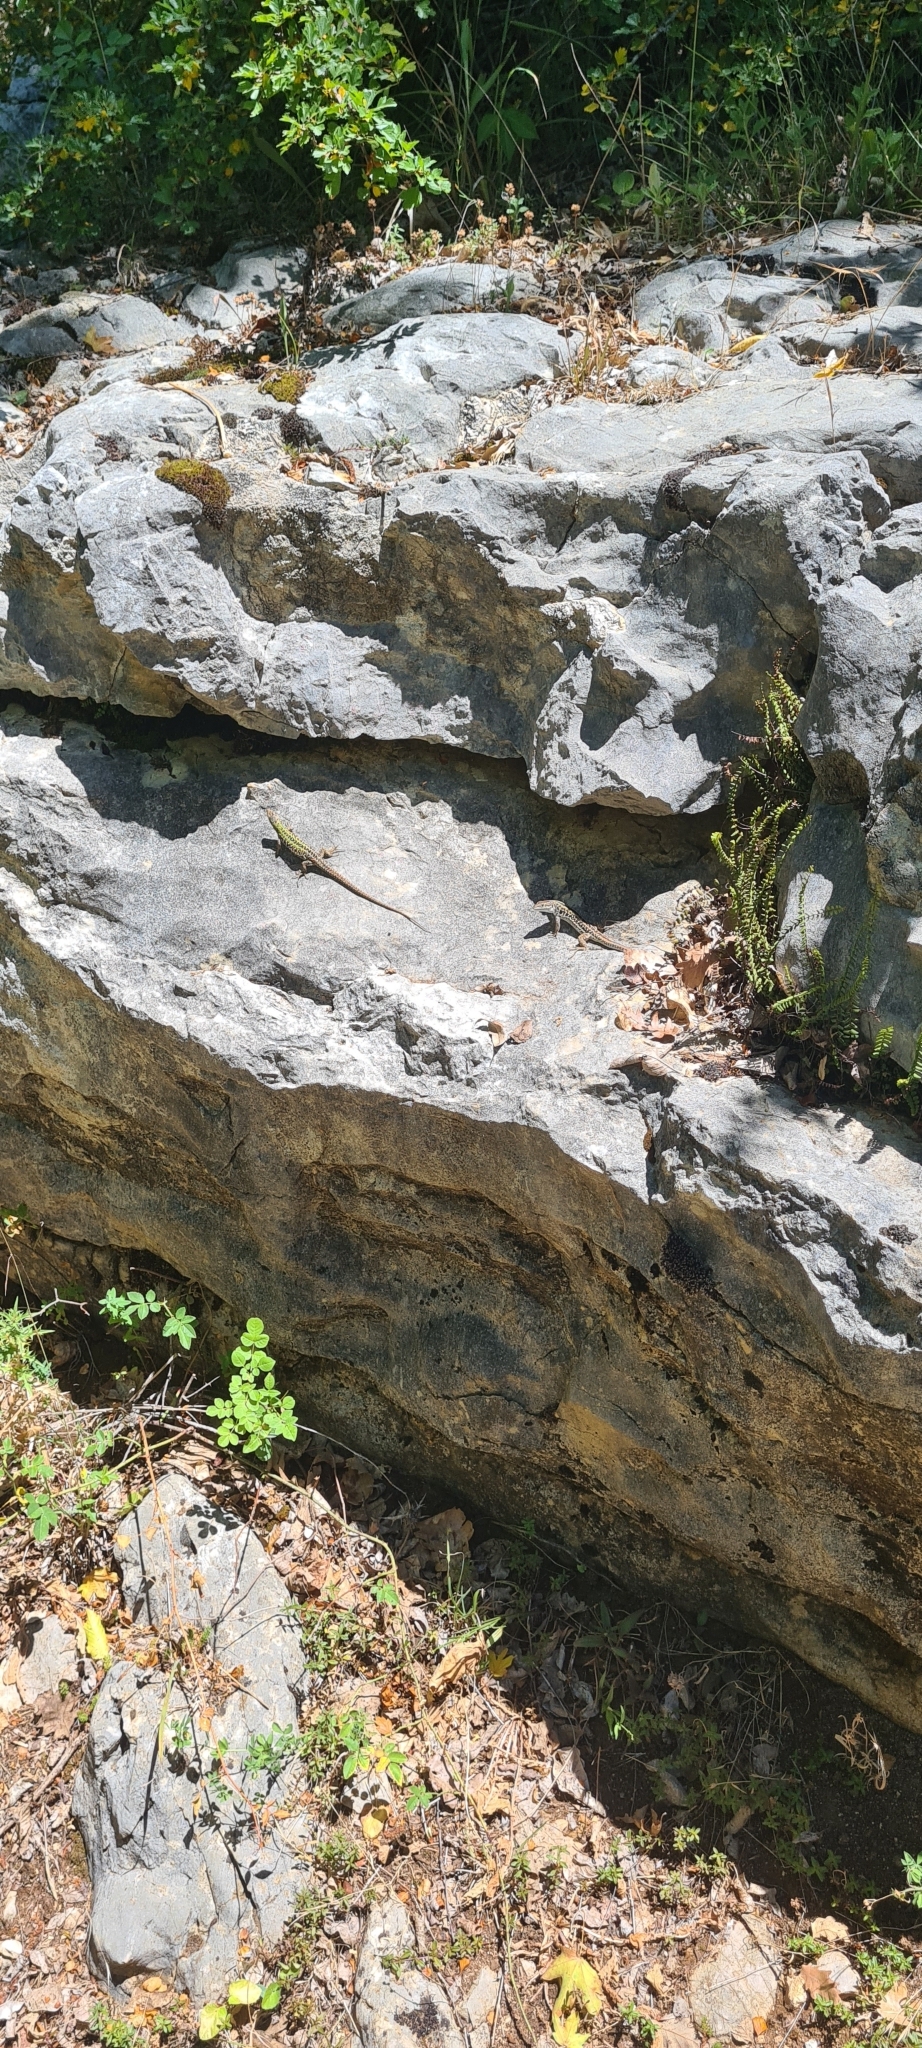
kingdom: Animalia
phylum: Chordata
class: Squamata
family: Lacertidae
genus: Podarcis
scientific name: Podarcis siculus
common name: Italian wall lizard
